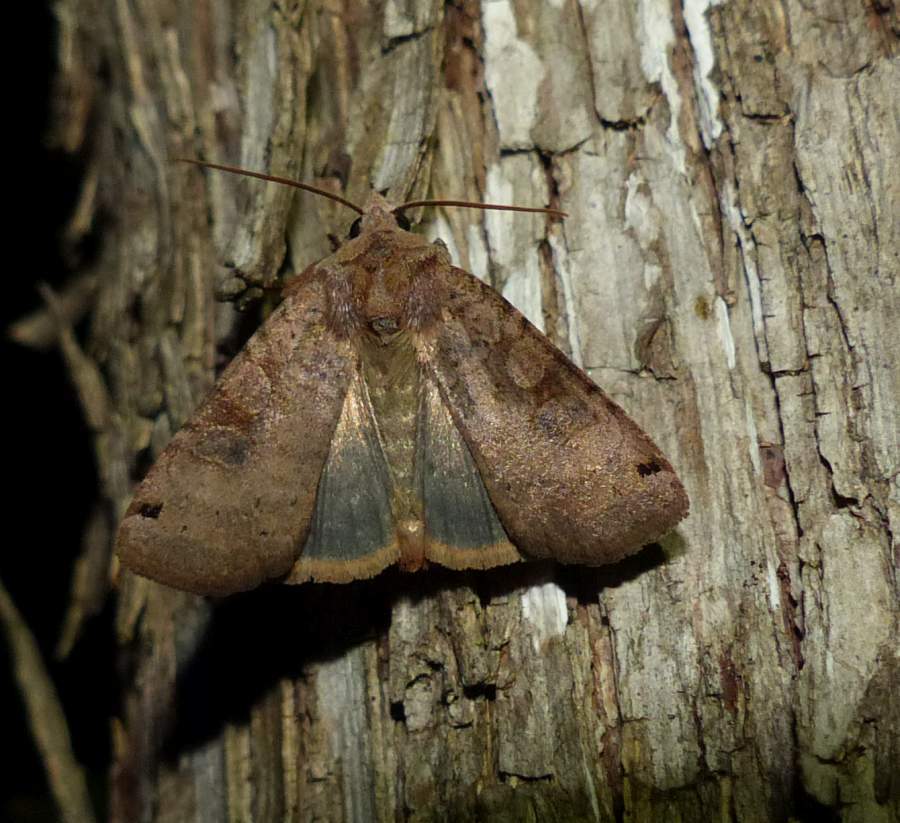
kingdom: Animalia
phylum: Arthropoda
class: Insecta
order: Lepidoptera
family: Noctuidae
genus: Xestia
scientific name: Xestia smithii
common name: Smith's dart
